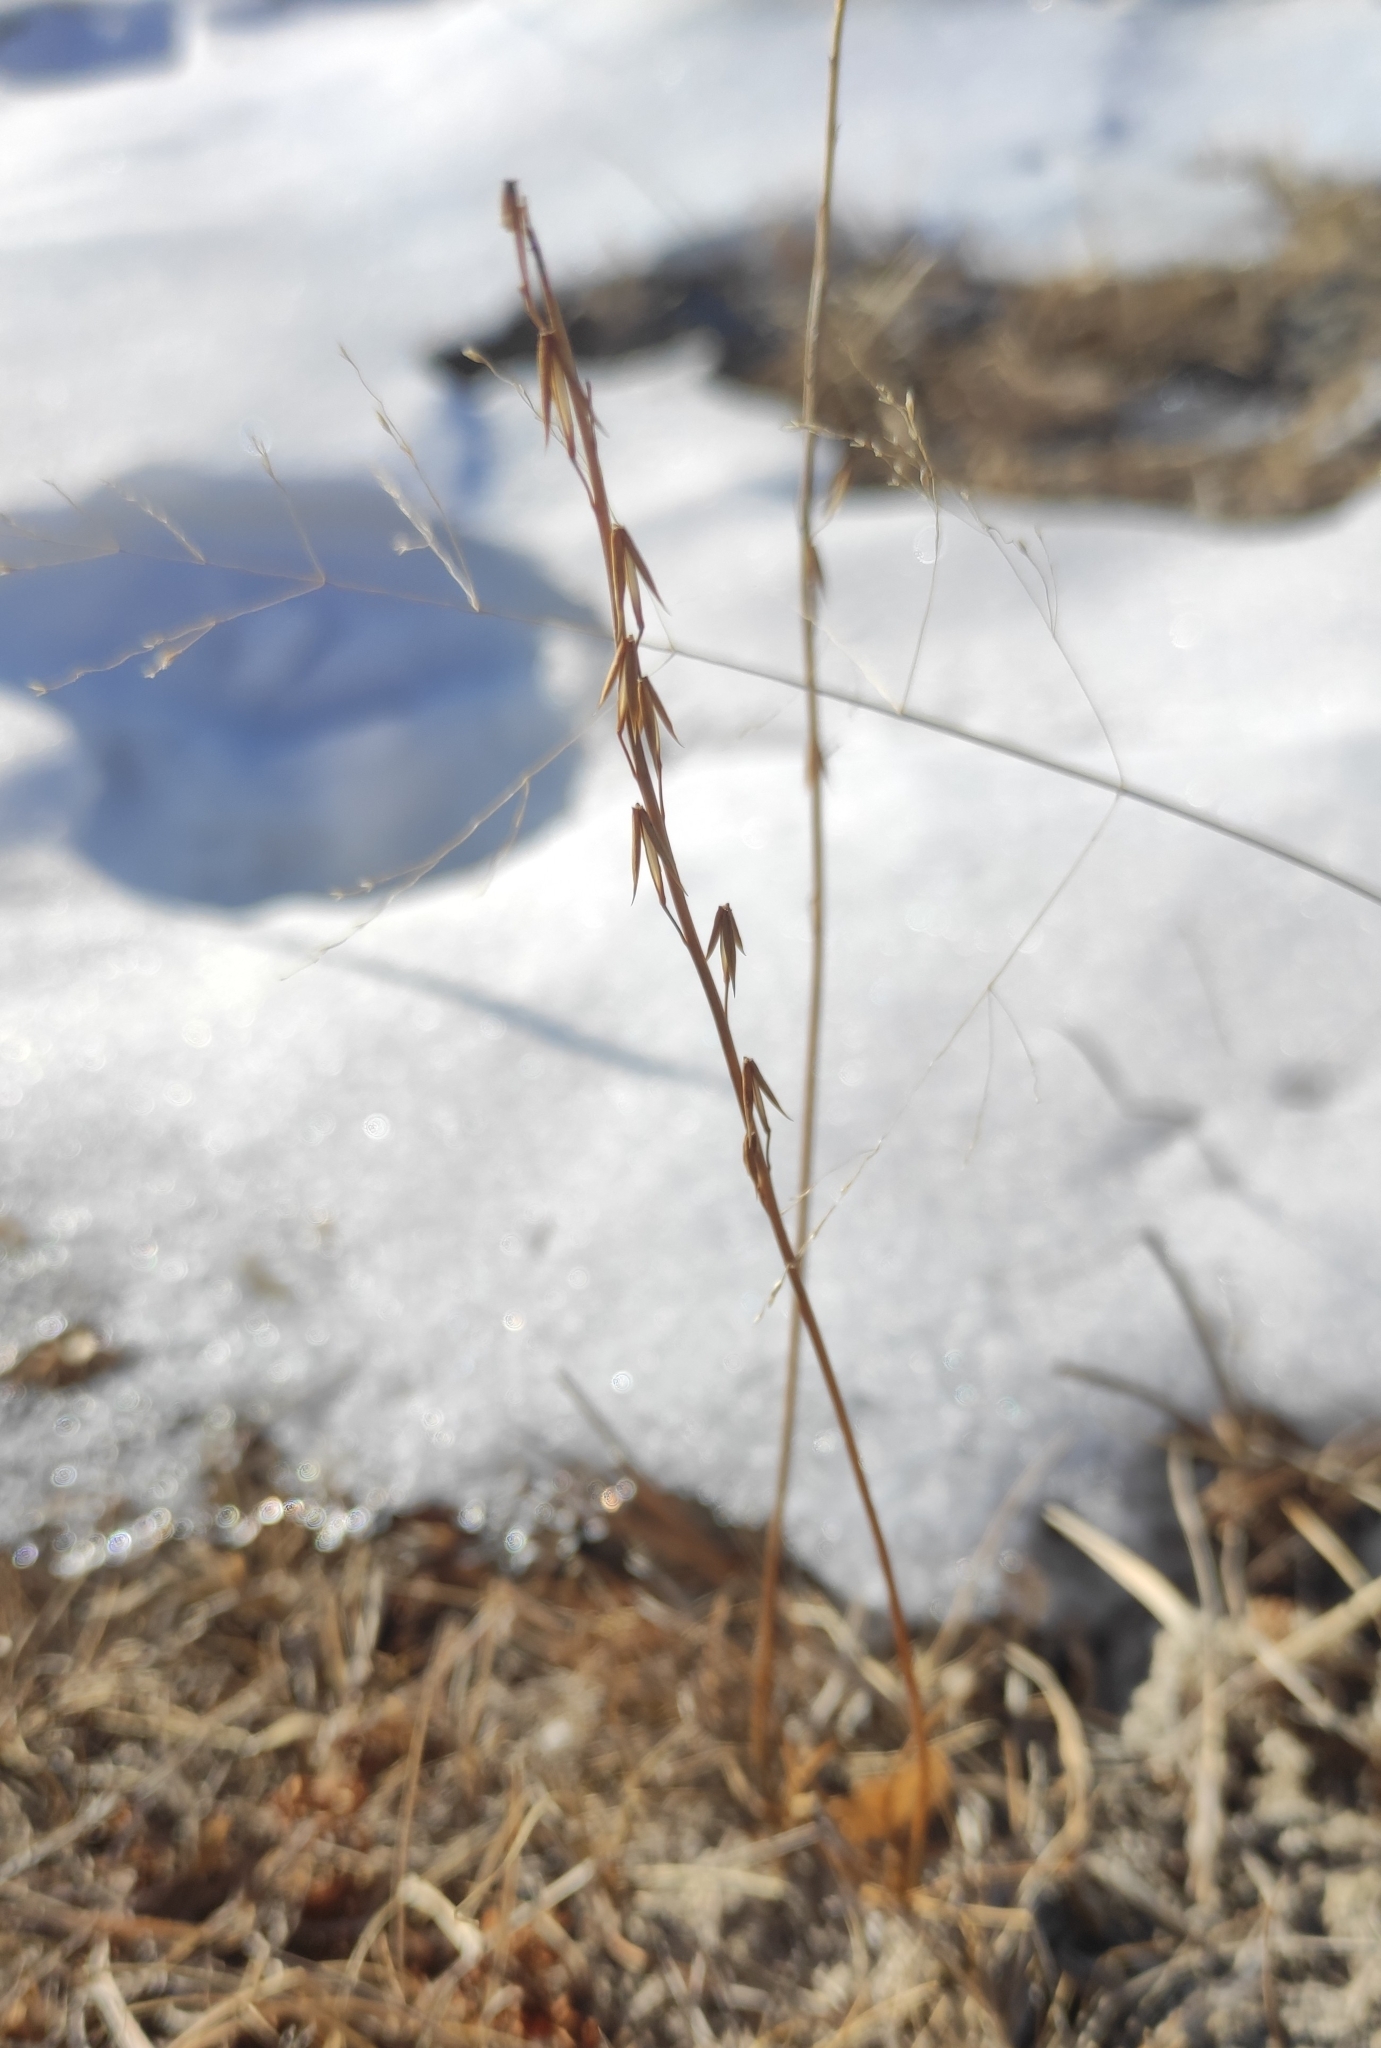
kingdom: Plantae
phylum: Tracheophyta
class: Liliopsida
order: Alismatales
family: Juncaginaceae
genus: Triglochin
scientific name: Triglochin palustris
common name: Marsh arrowgrass
